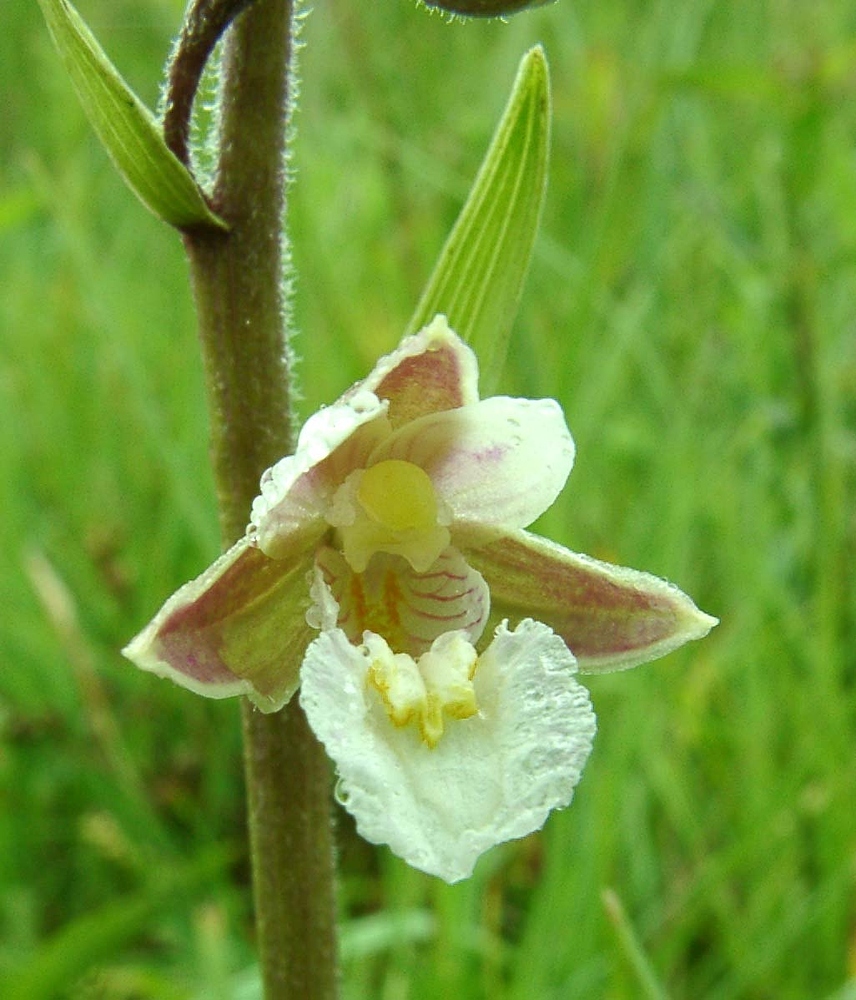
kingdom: Plantae
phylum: Tracheophyta
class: Liliopsida
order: Asparagales
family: Orchidaceae
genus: Epipactis
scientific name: Epipactis palustris
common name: Marsh helleborine
